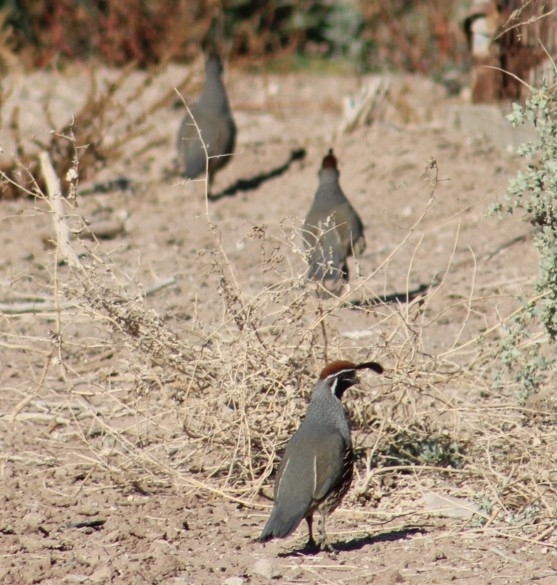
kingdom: Animalia
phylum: Chordata
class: Aves
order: Galliformes
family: Odontophoridae
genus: Callipepla
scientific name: Callipepla gambelii
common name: Gambel's quail
